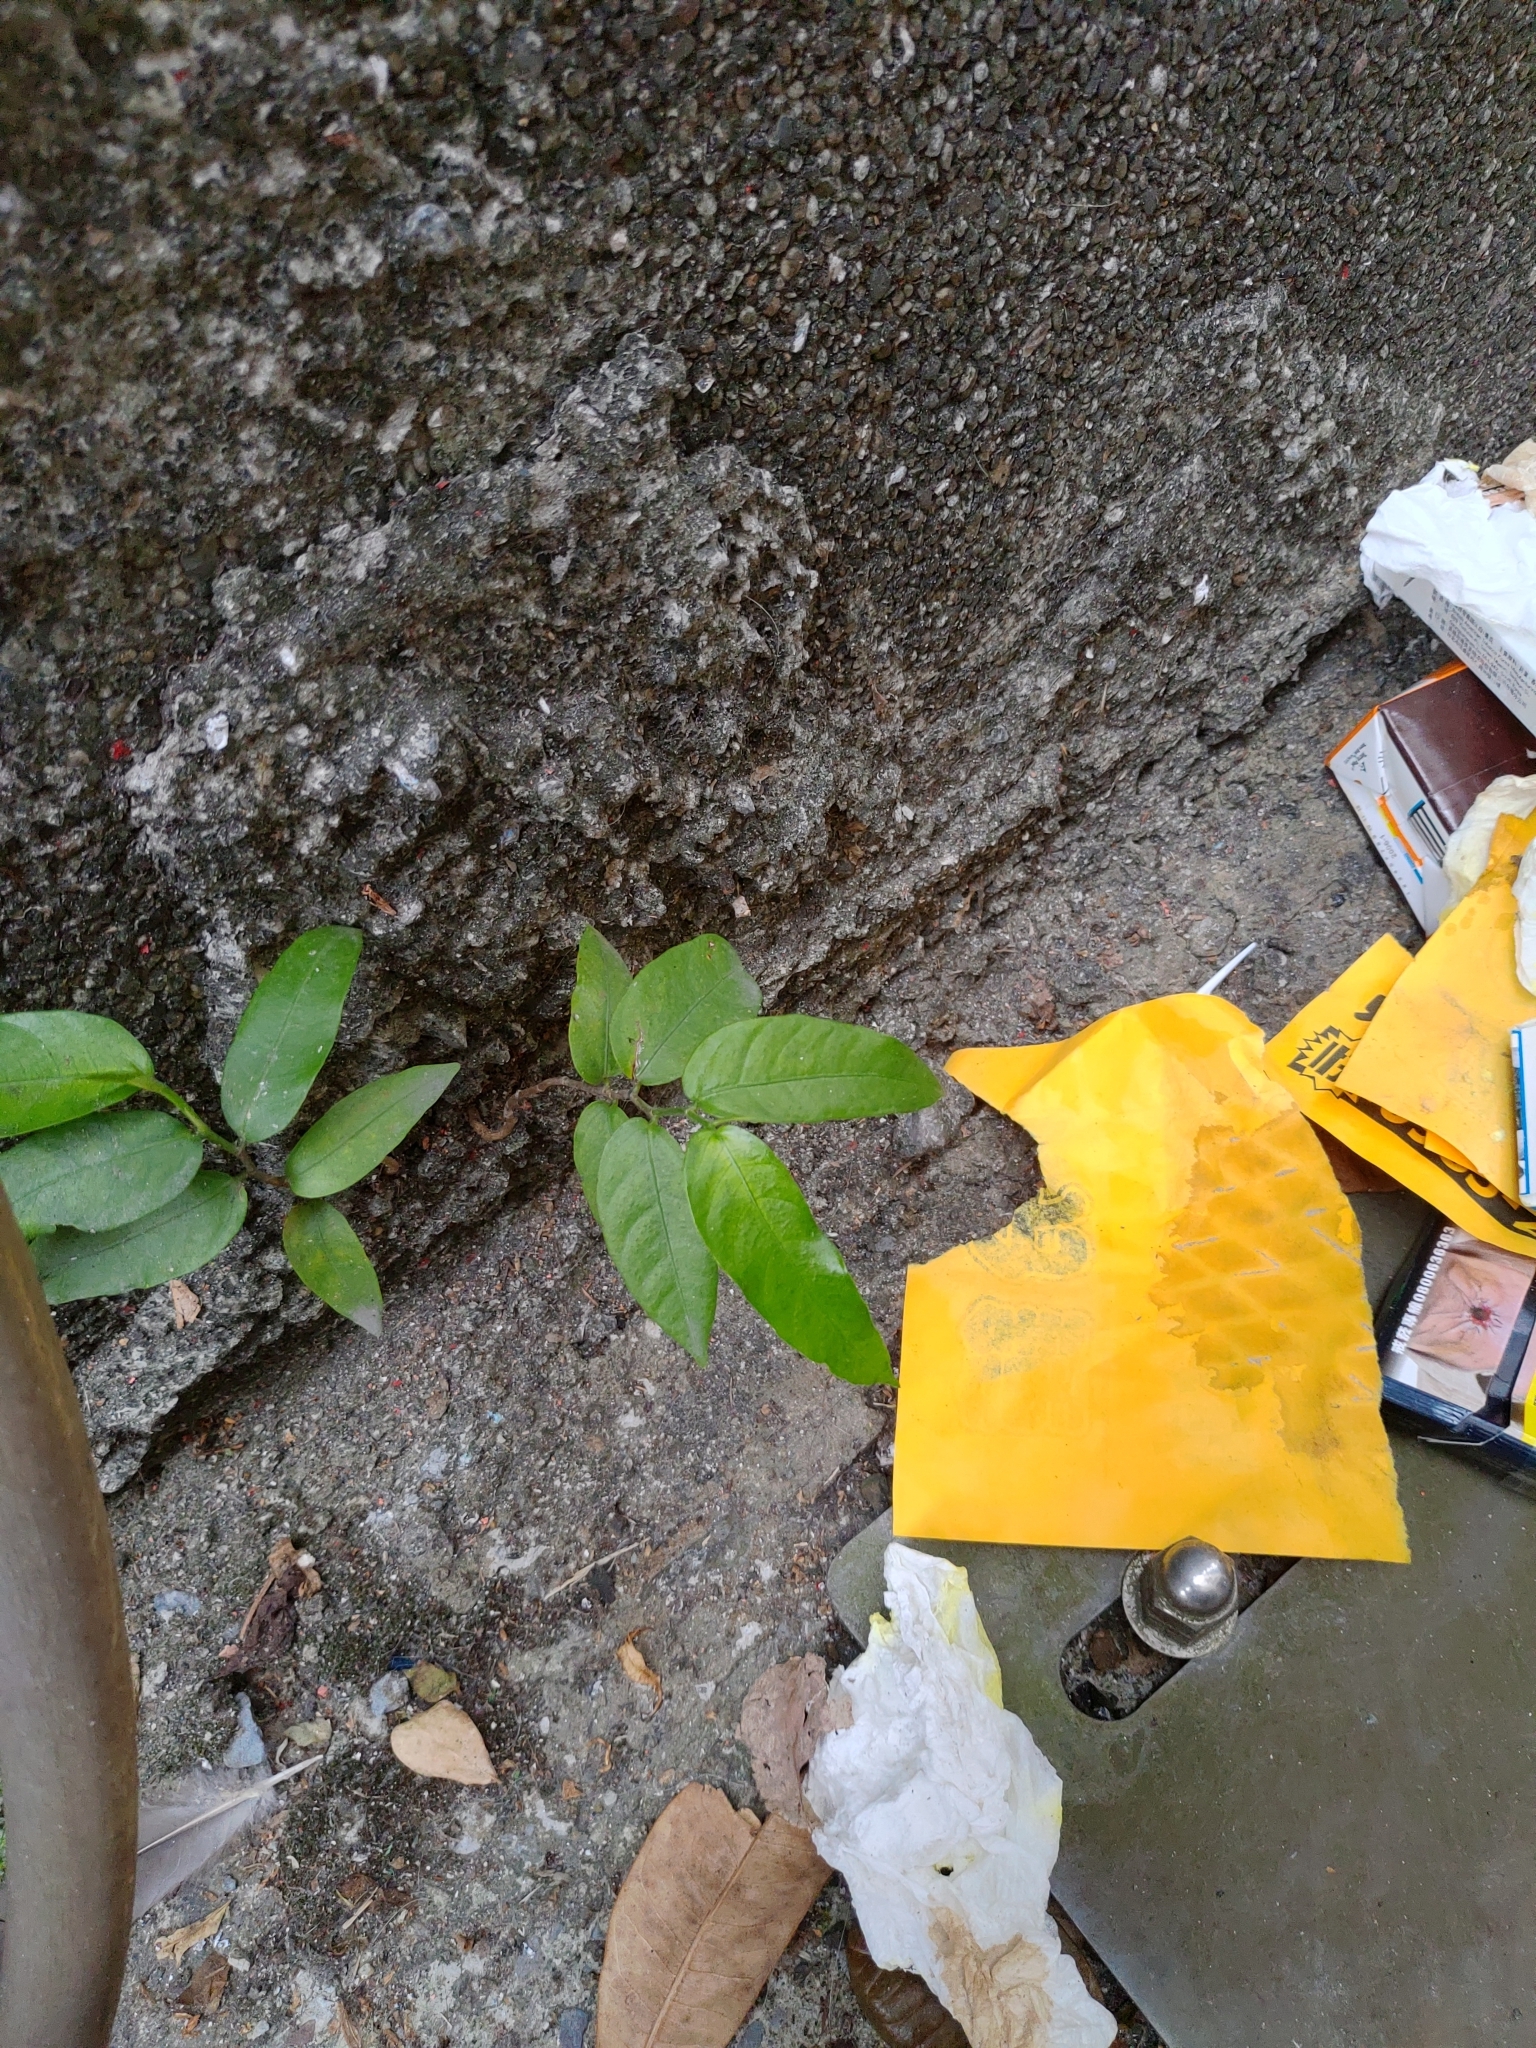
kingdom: Plantae
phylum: Tracheophyta
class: Magnoliopsida
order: Rosales
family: Moraceae
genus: Ficus
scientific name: Ficus virgata
